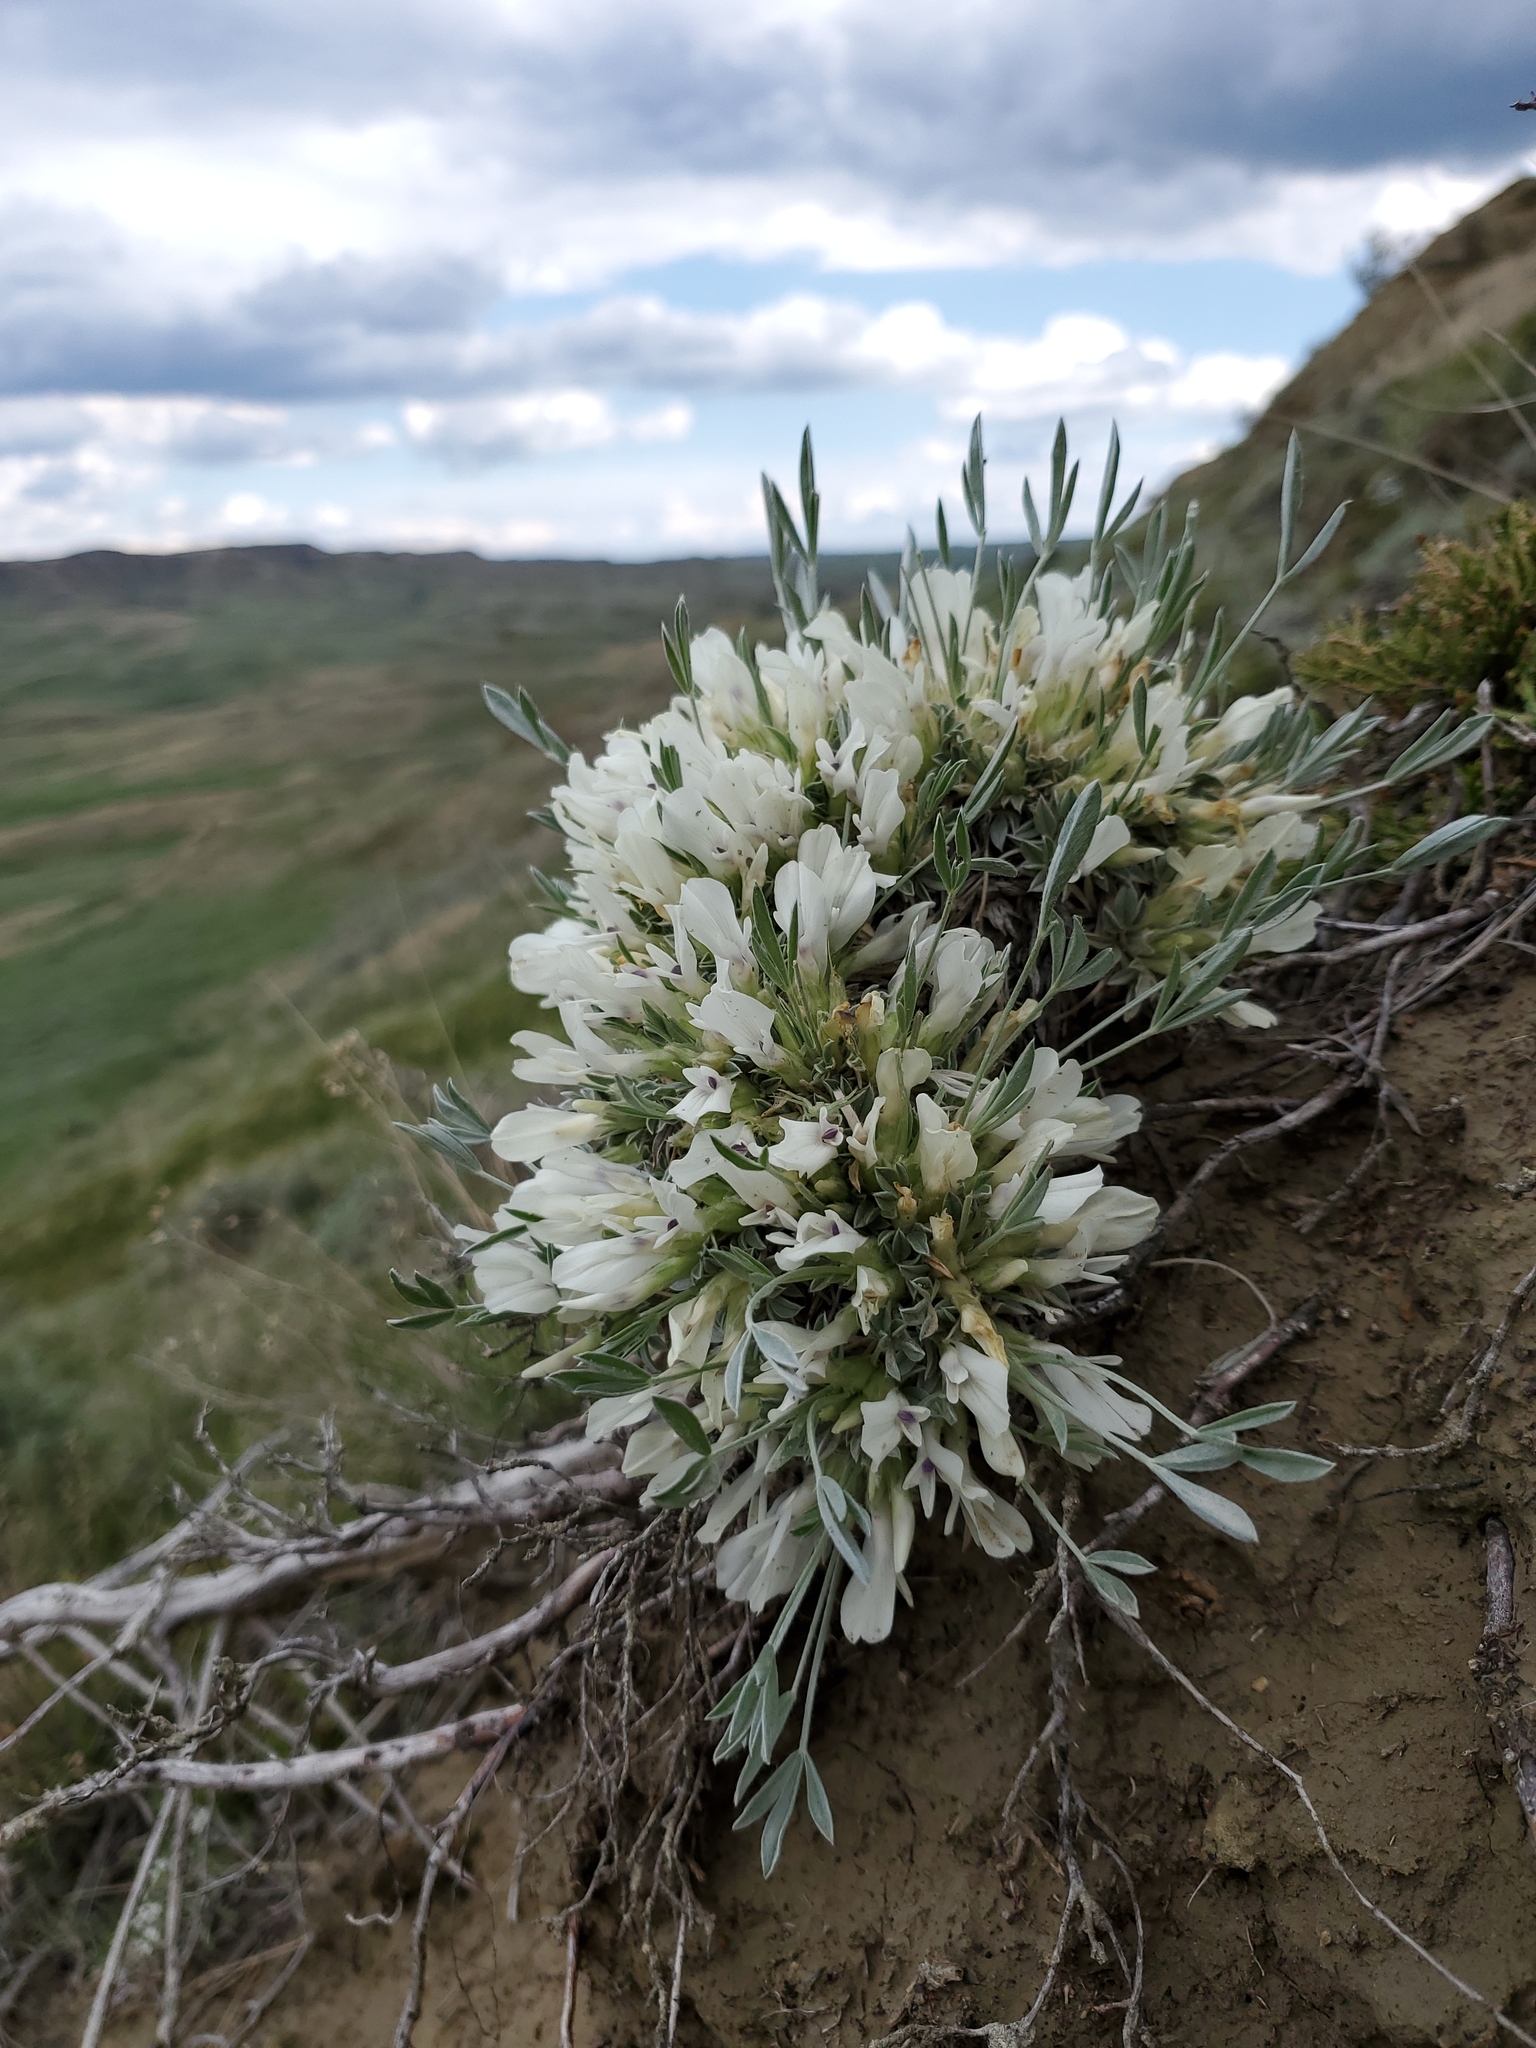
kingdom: Plantae
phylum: Tracheophyta
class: Magnoliopsida
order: Fabales
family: Fabaceae
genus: Astragalus
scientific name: Astragalus gilviflorus
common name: Cushion milk-vetch
